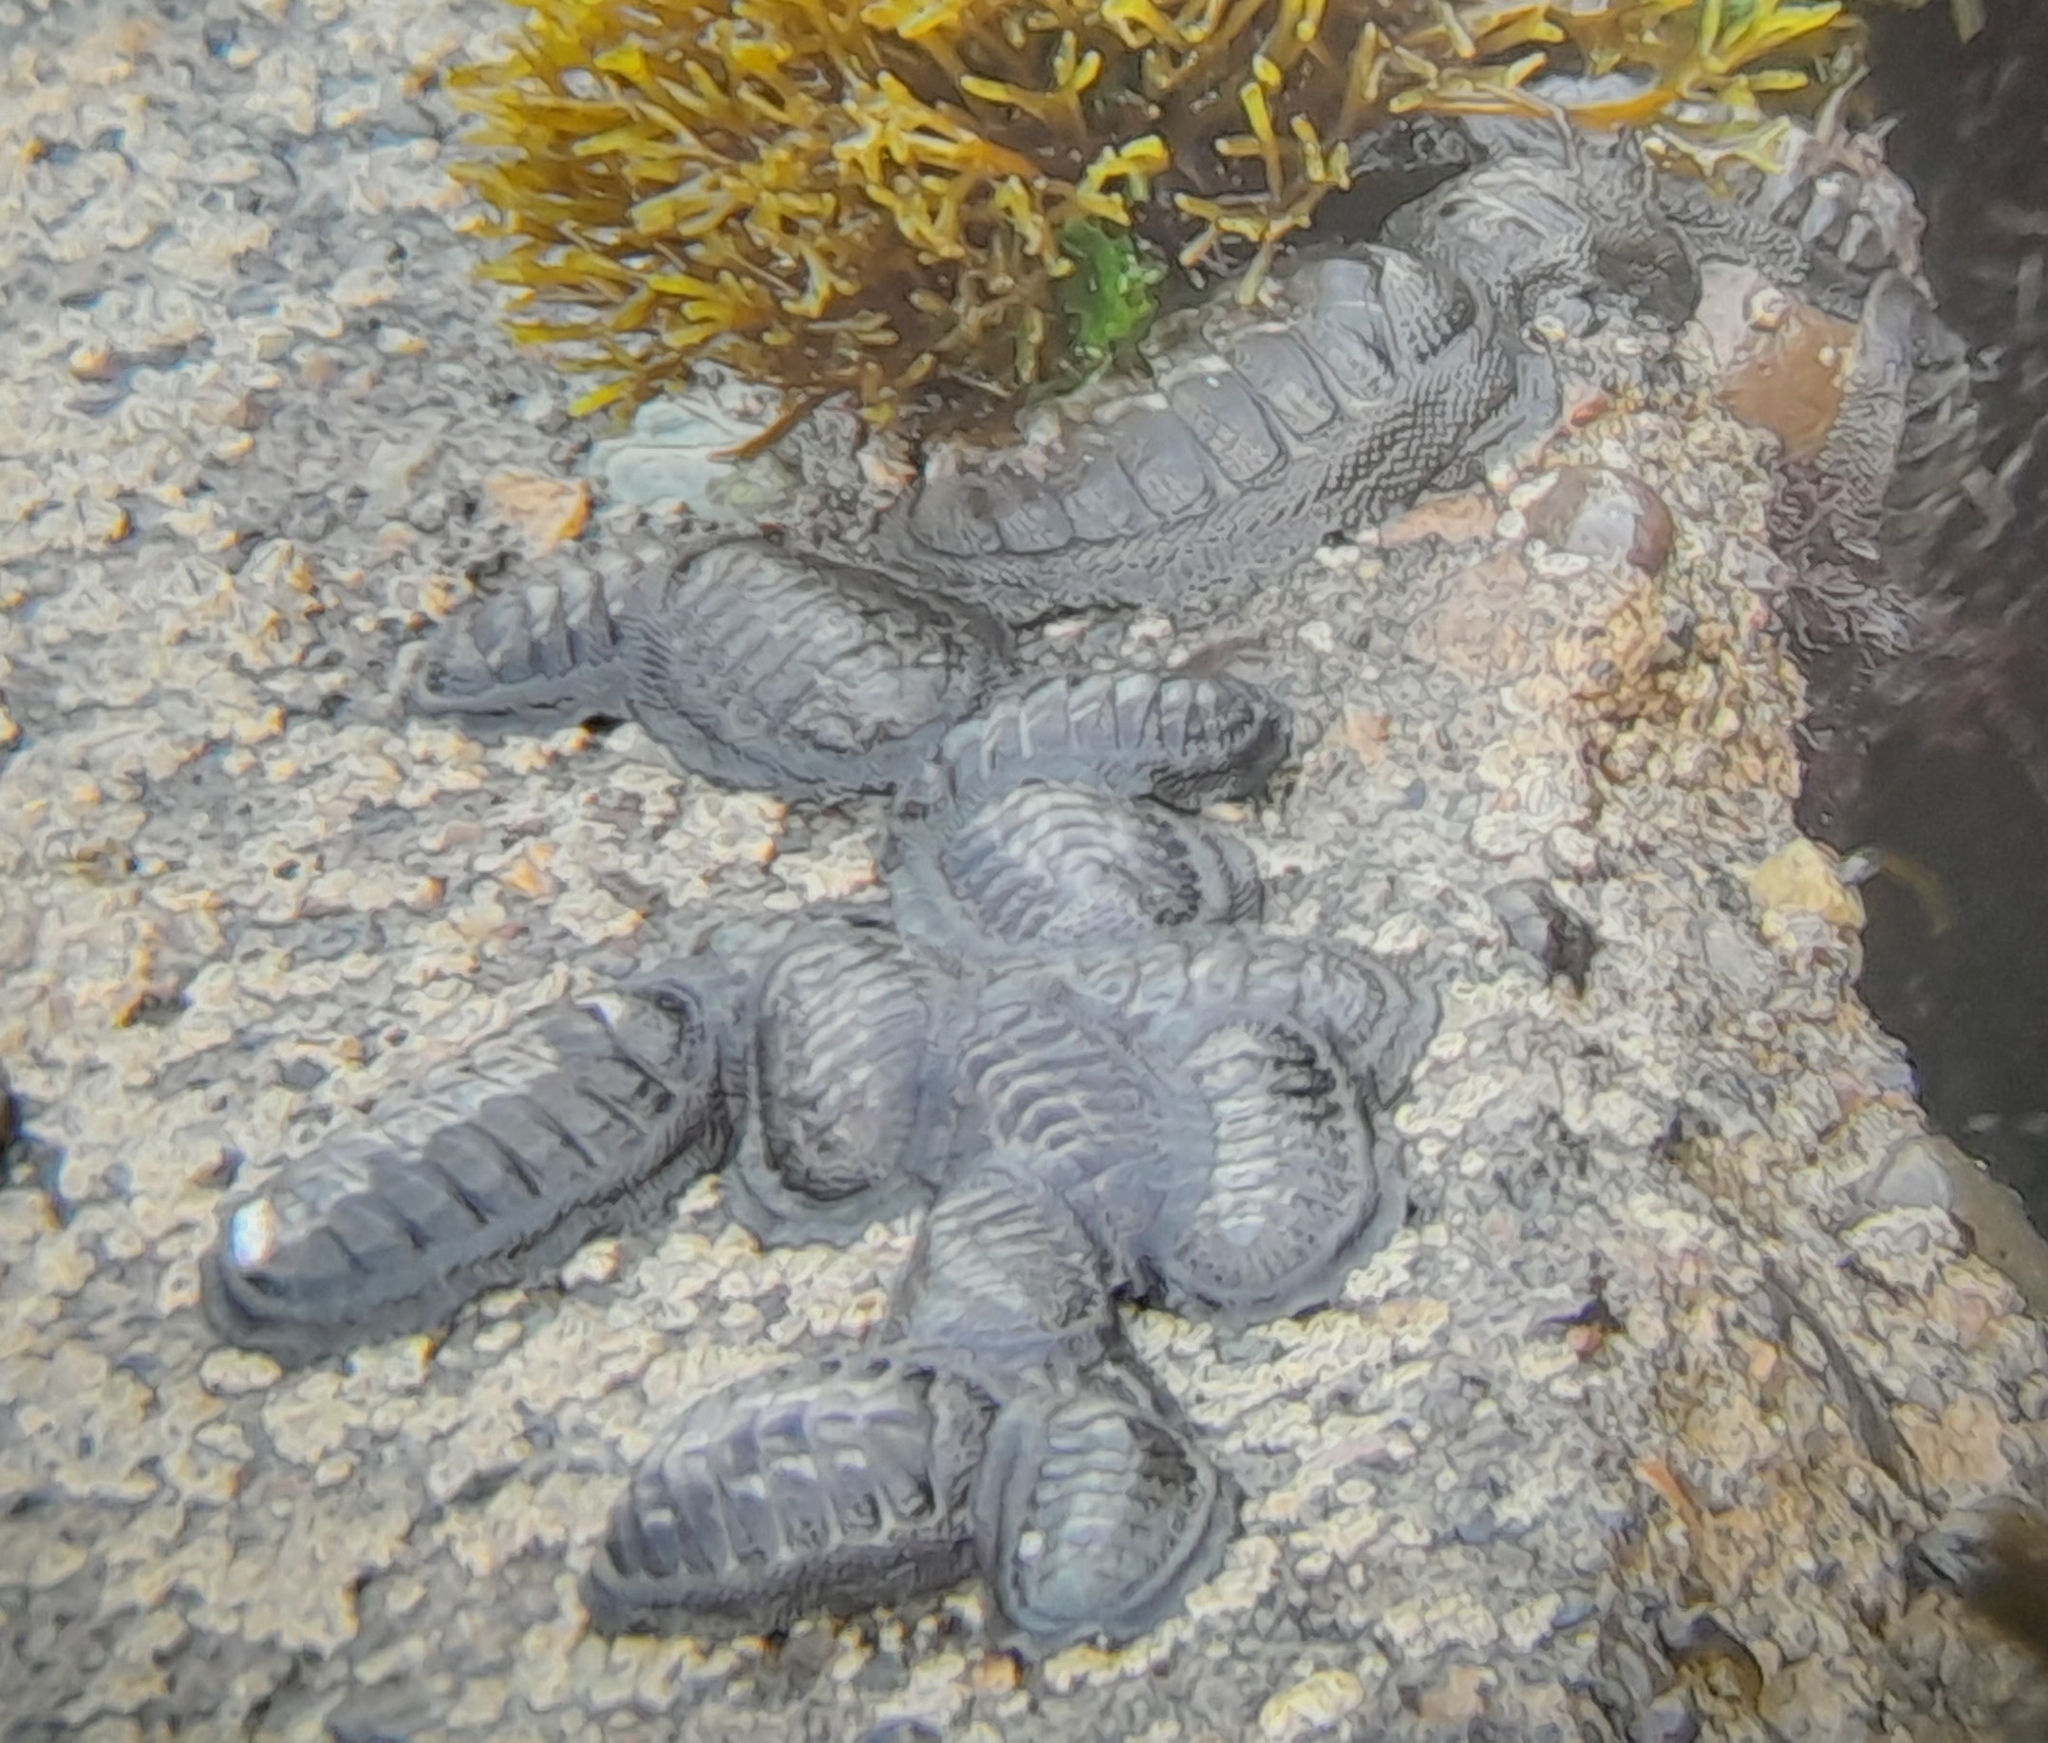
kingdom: Animalia
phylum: Mollusca
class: Polyplacophora
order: Chitonida
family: Chitonidae
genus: Chiton
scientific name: Chiton granosus
